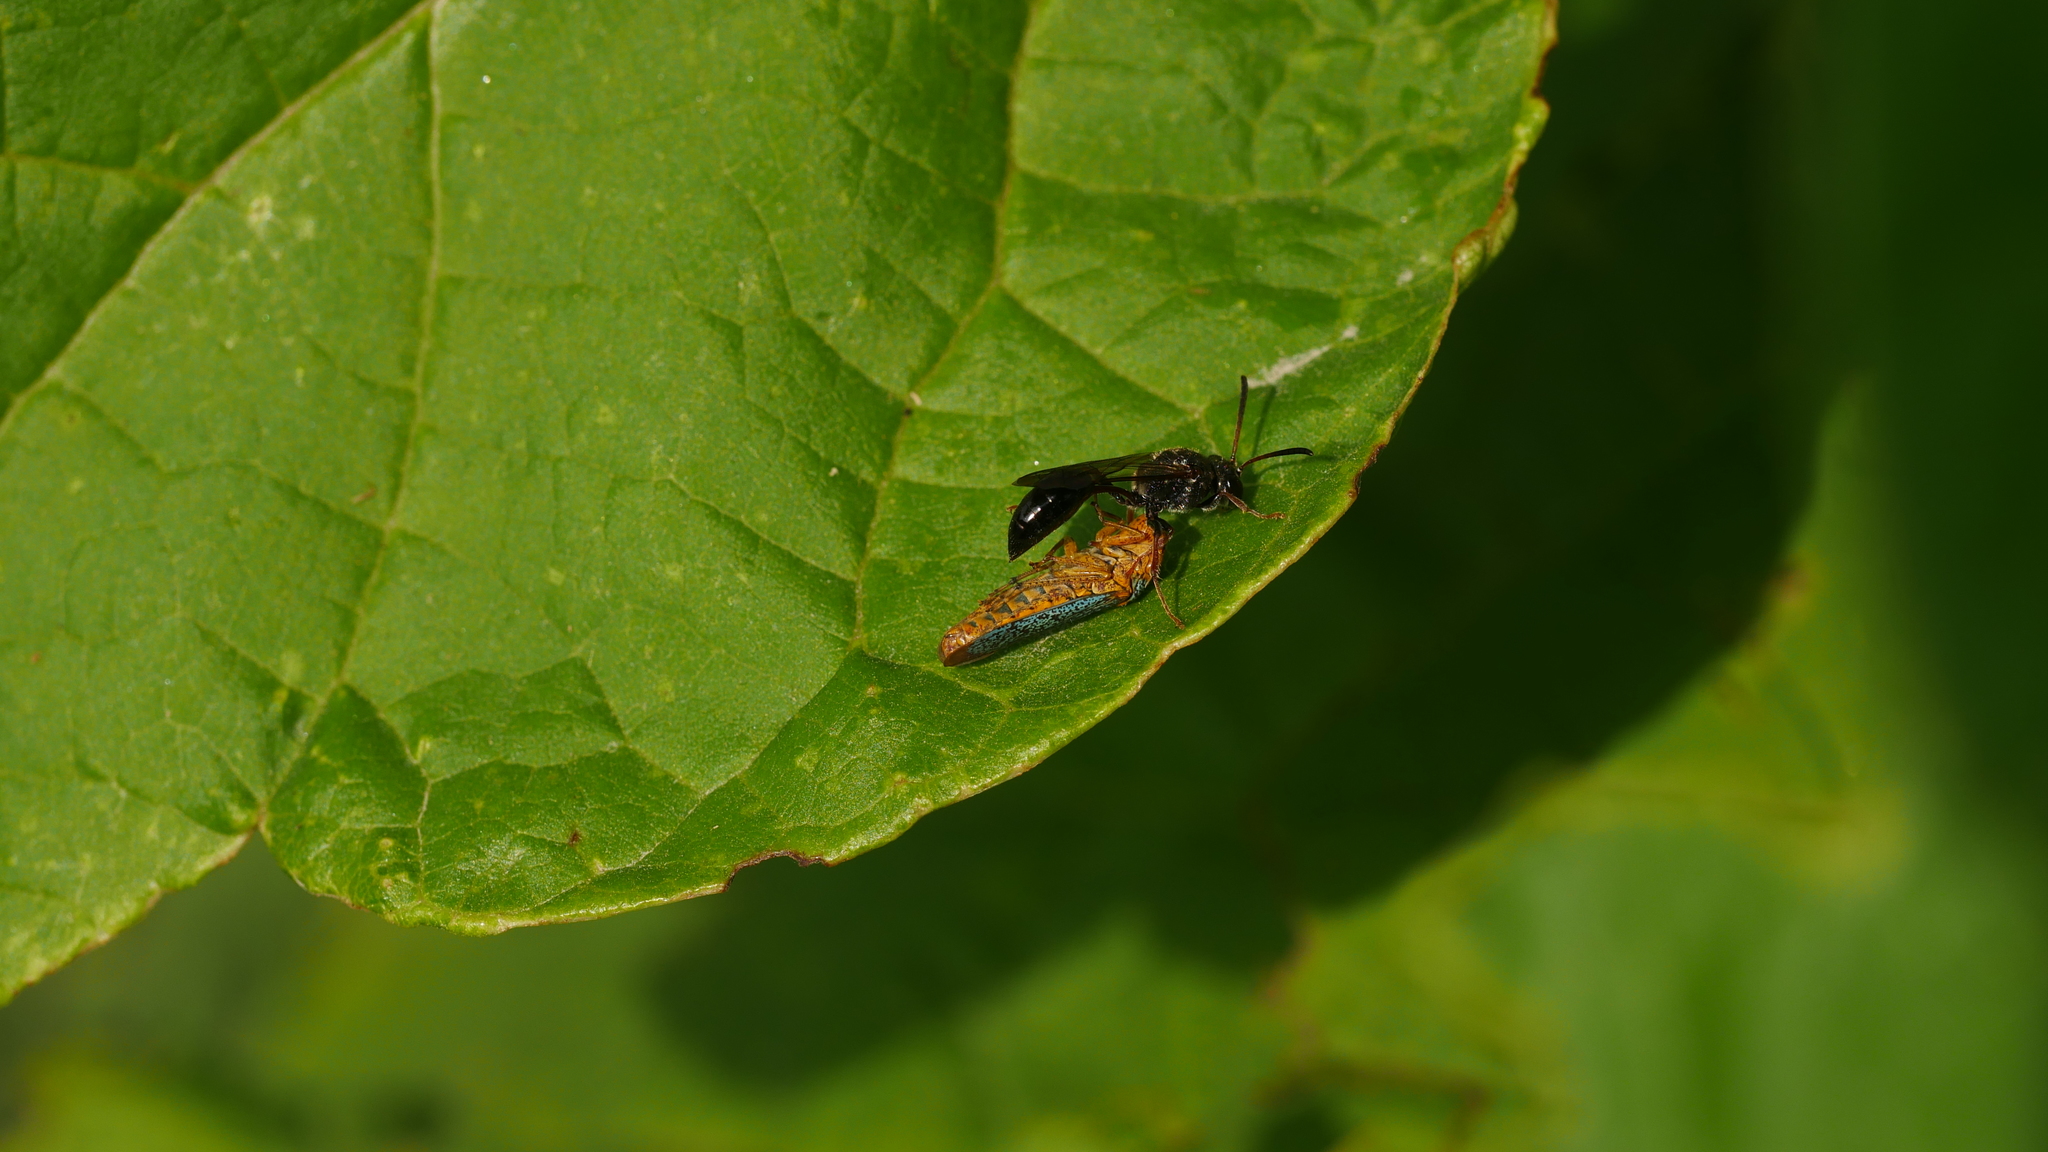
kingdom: Animalia
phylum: Arthropoda
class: Insecta
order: Hemiptera
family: Cicadellidae
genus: Oncometopia
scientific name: Oncometopia orbona
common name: Broad-headed sharpshooter
